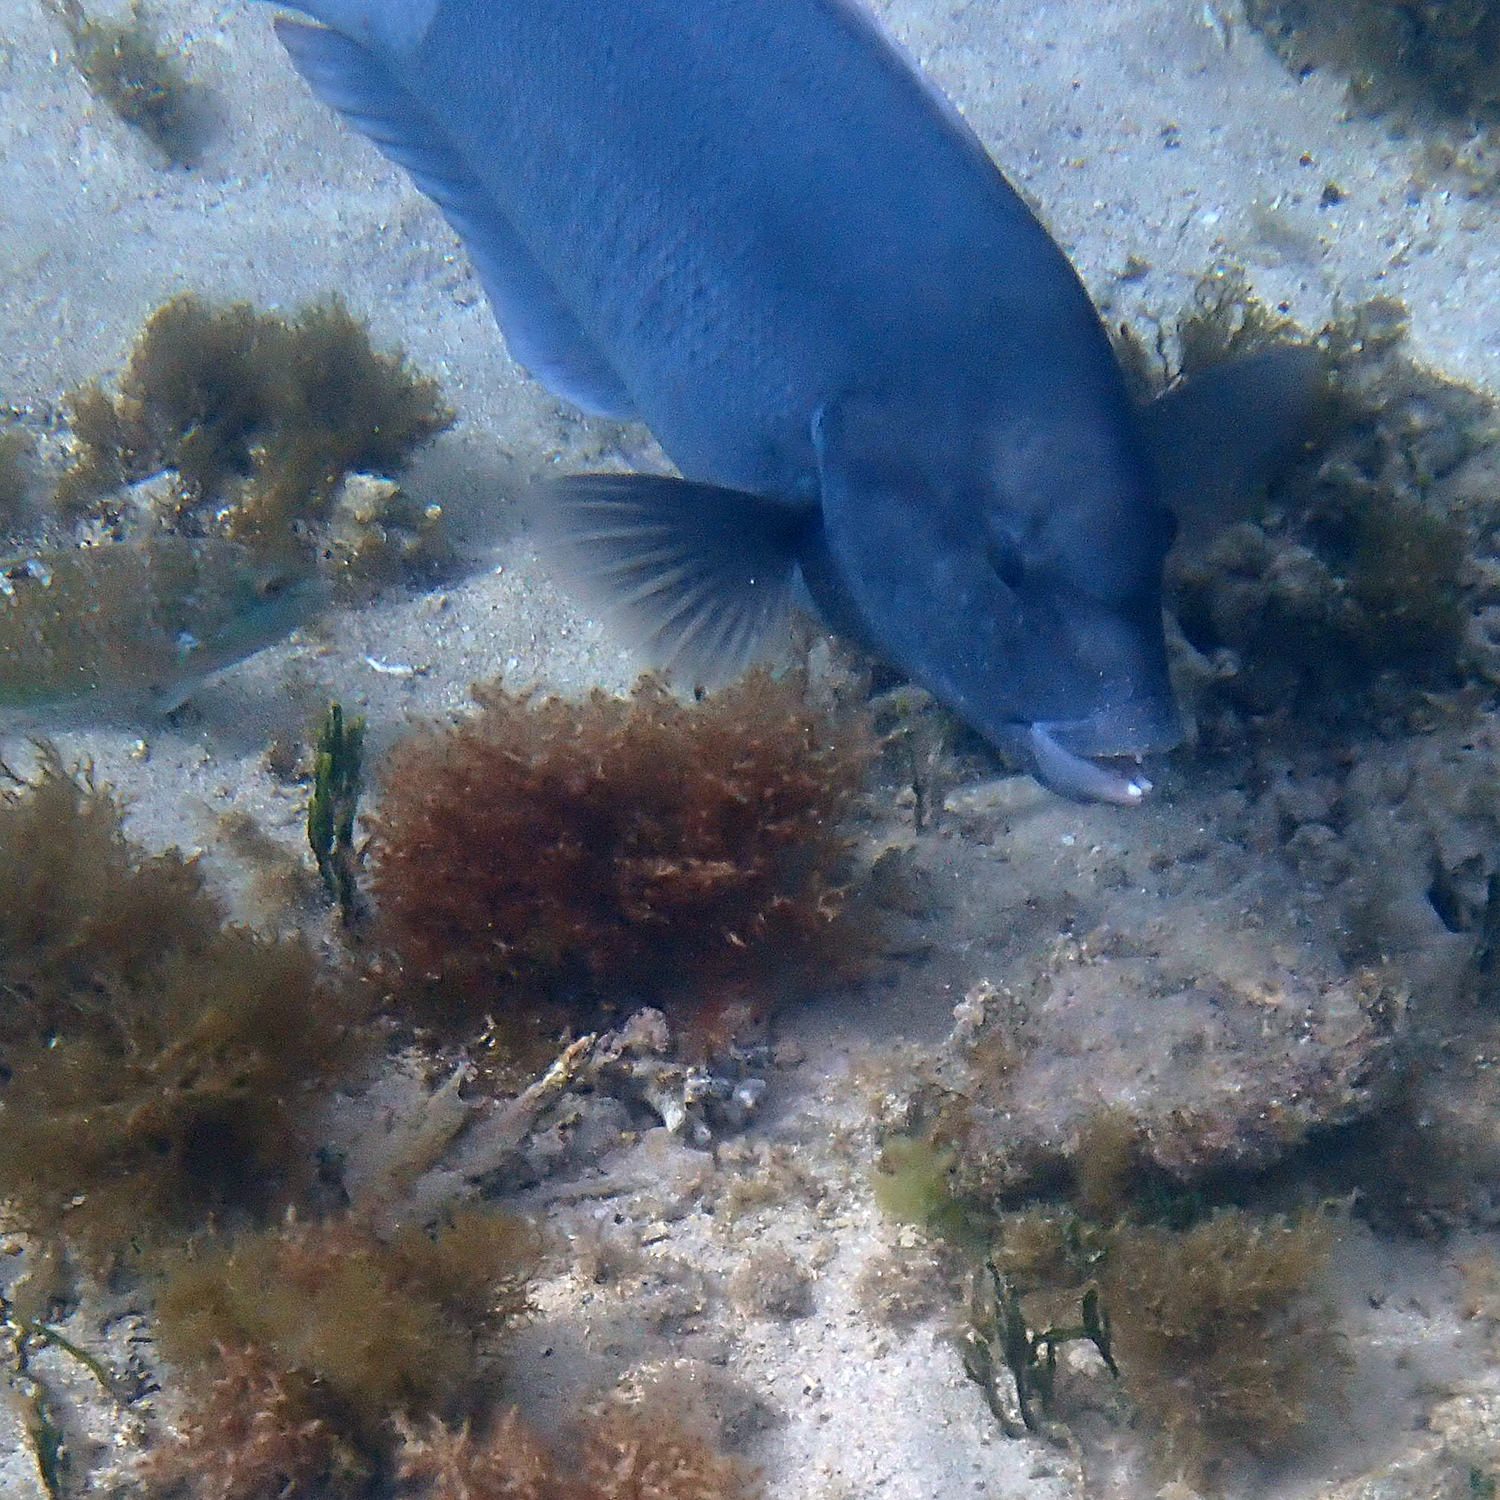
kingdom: Animalia
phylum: Chordata
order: Perciformes
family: Labridae
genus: Coris
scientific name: Coris bulbifrons
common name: Doubleheader
